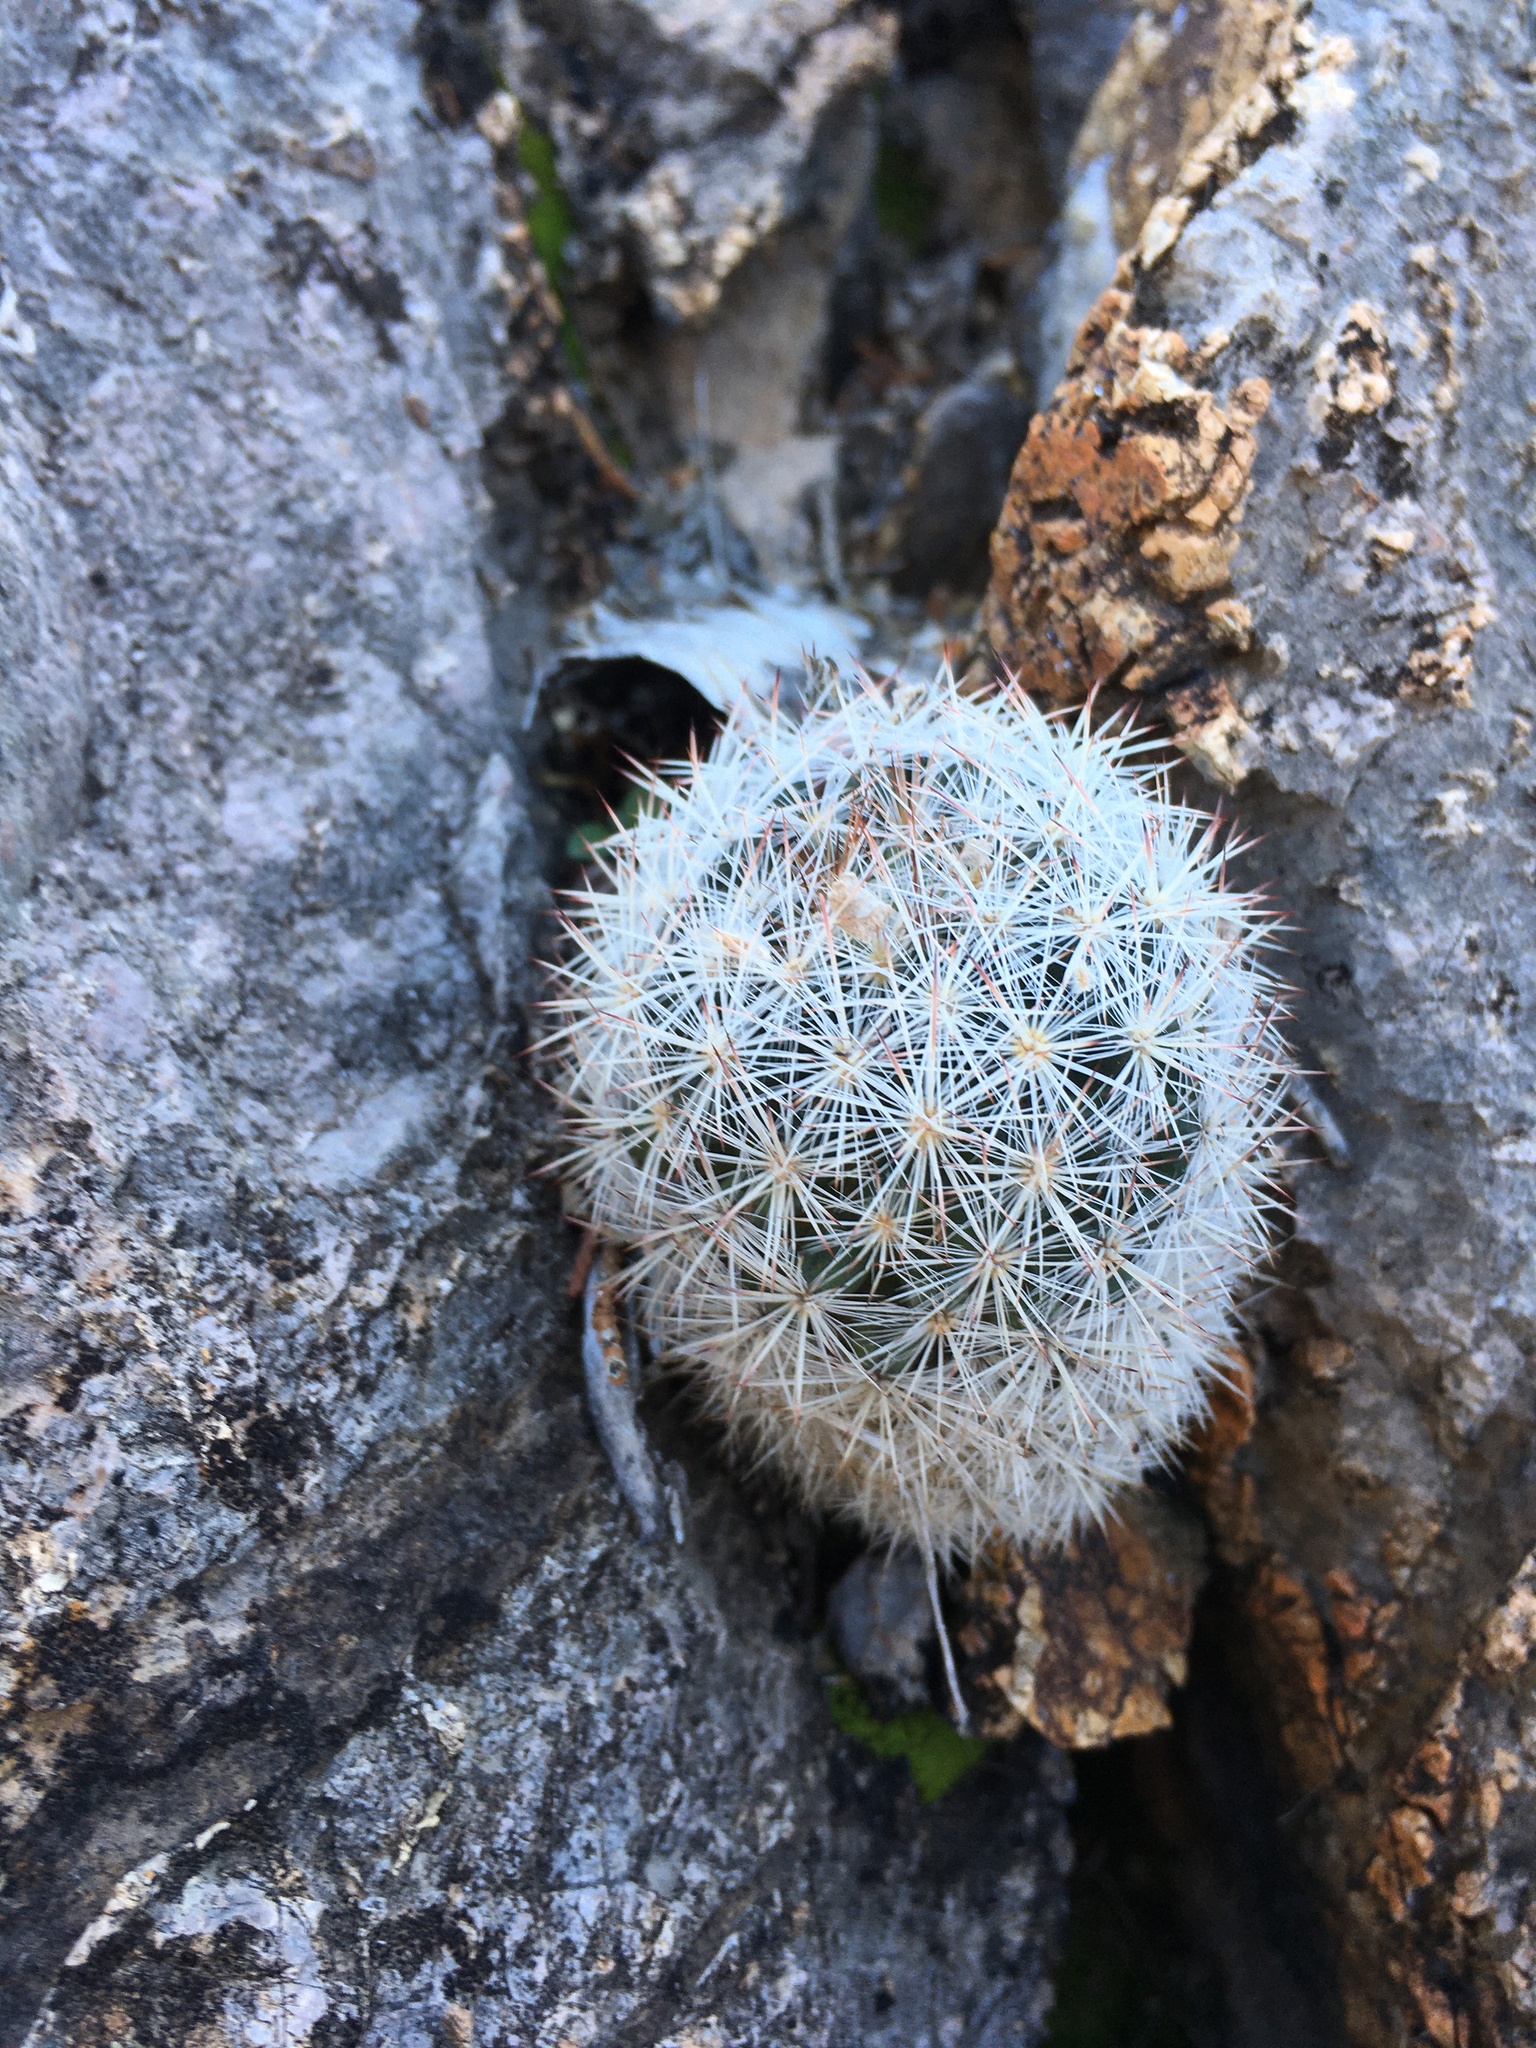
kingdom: Plantae
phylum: Tracheophyta
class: Magnoliopsida
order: Caryophyllales
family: Cactaceae
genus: Pelecyphora
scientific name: Pelecyphora sneedii
